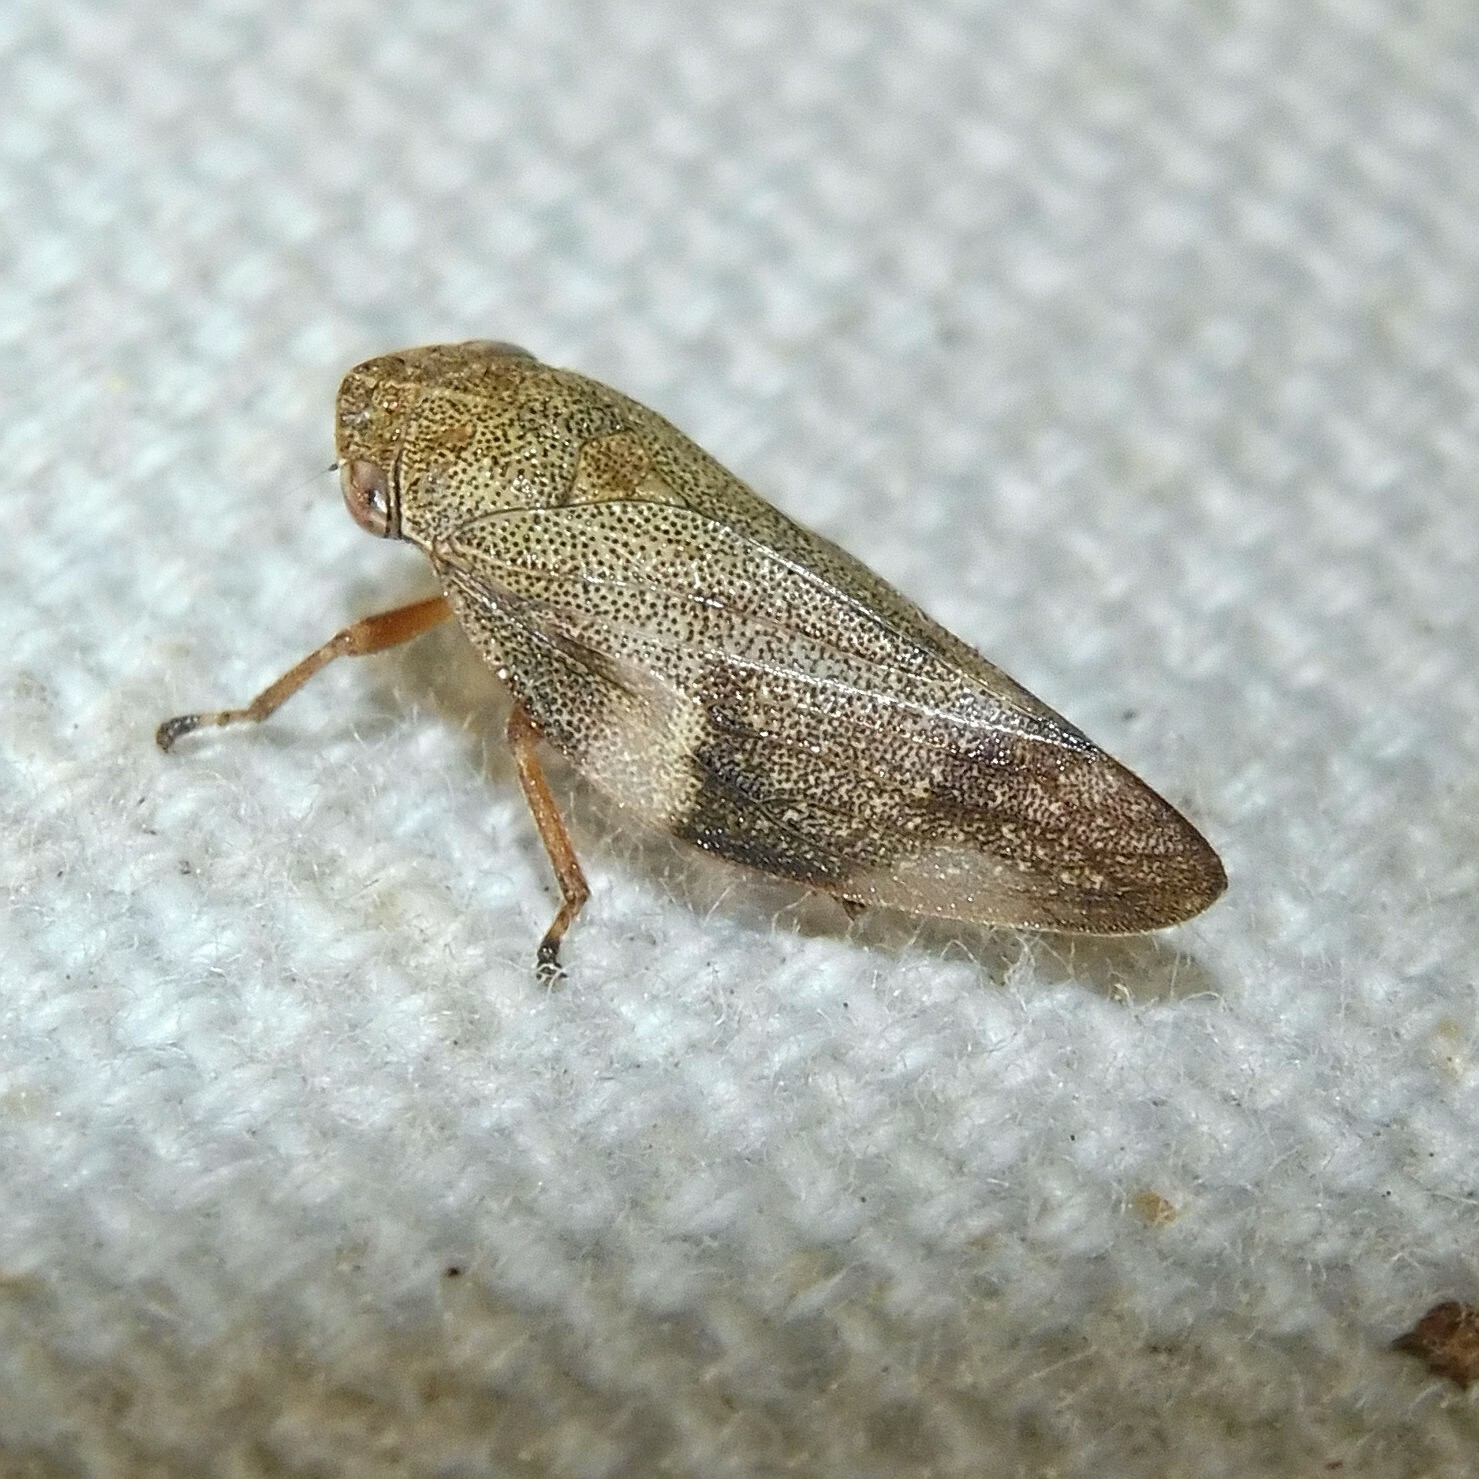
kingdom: Animalia
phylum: Arthropoda
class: Insecta
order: Hemiptera
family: Aphrophoridae
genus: Aphrophora
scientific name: Aphrophora alni
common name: European alder spittlebug
